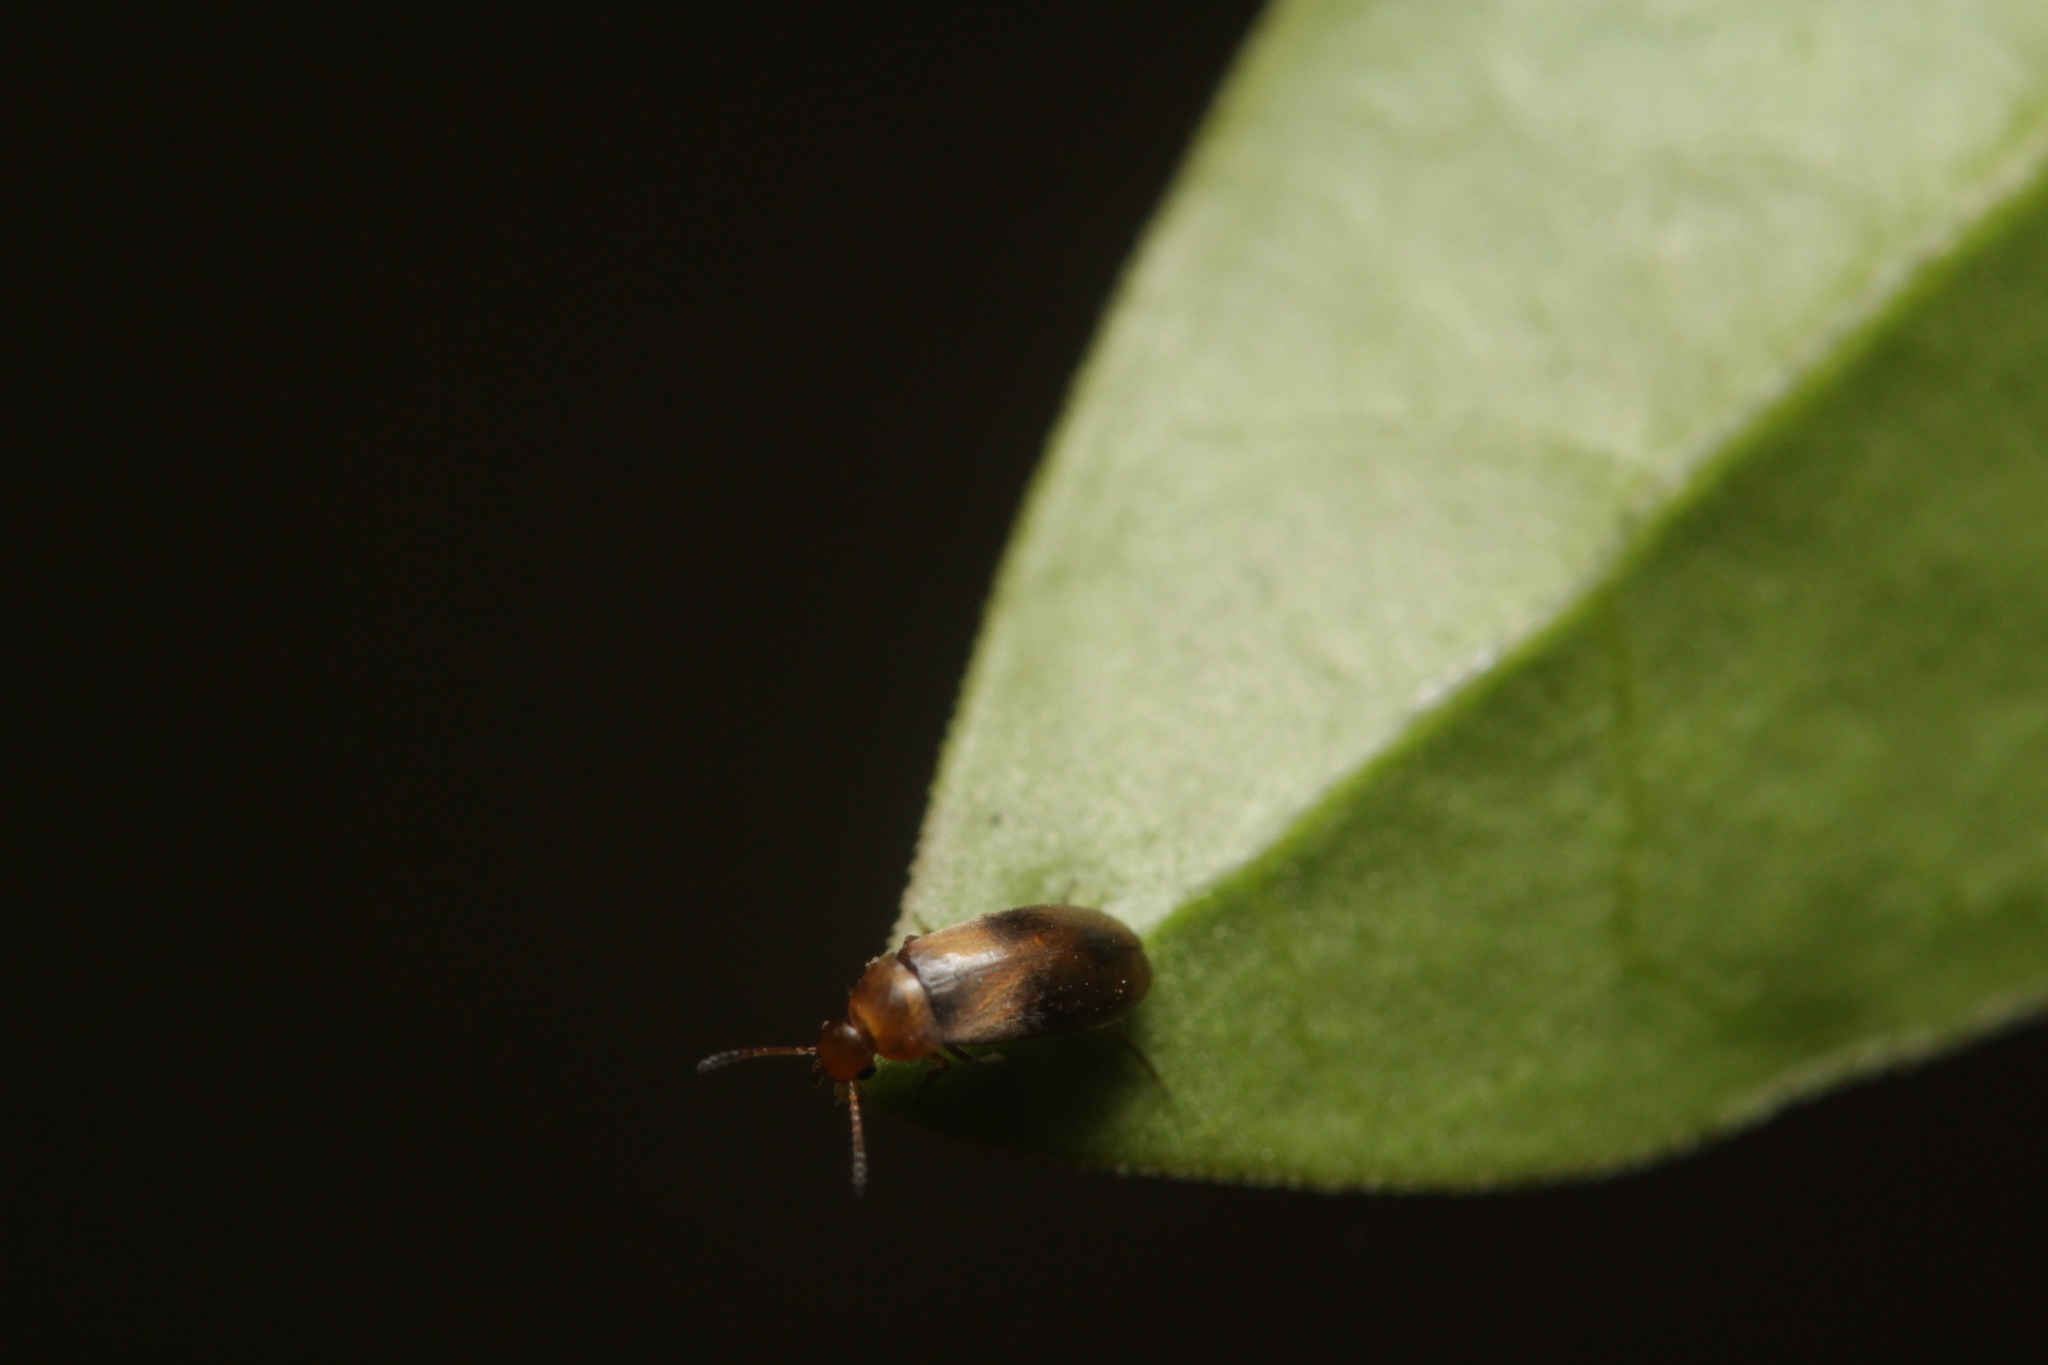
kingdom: Animalia
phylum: Arthropoda
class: Insecta
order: Coleoptera
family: Scraptiidae
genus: Anaspis
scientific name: Anaspis maculata
